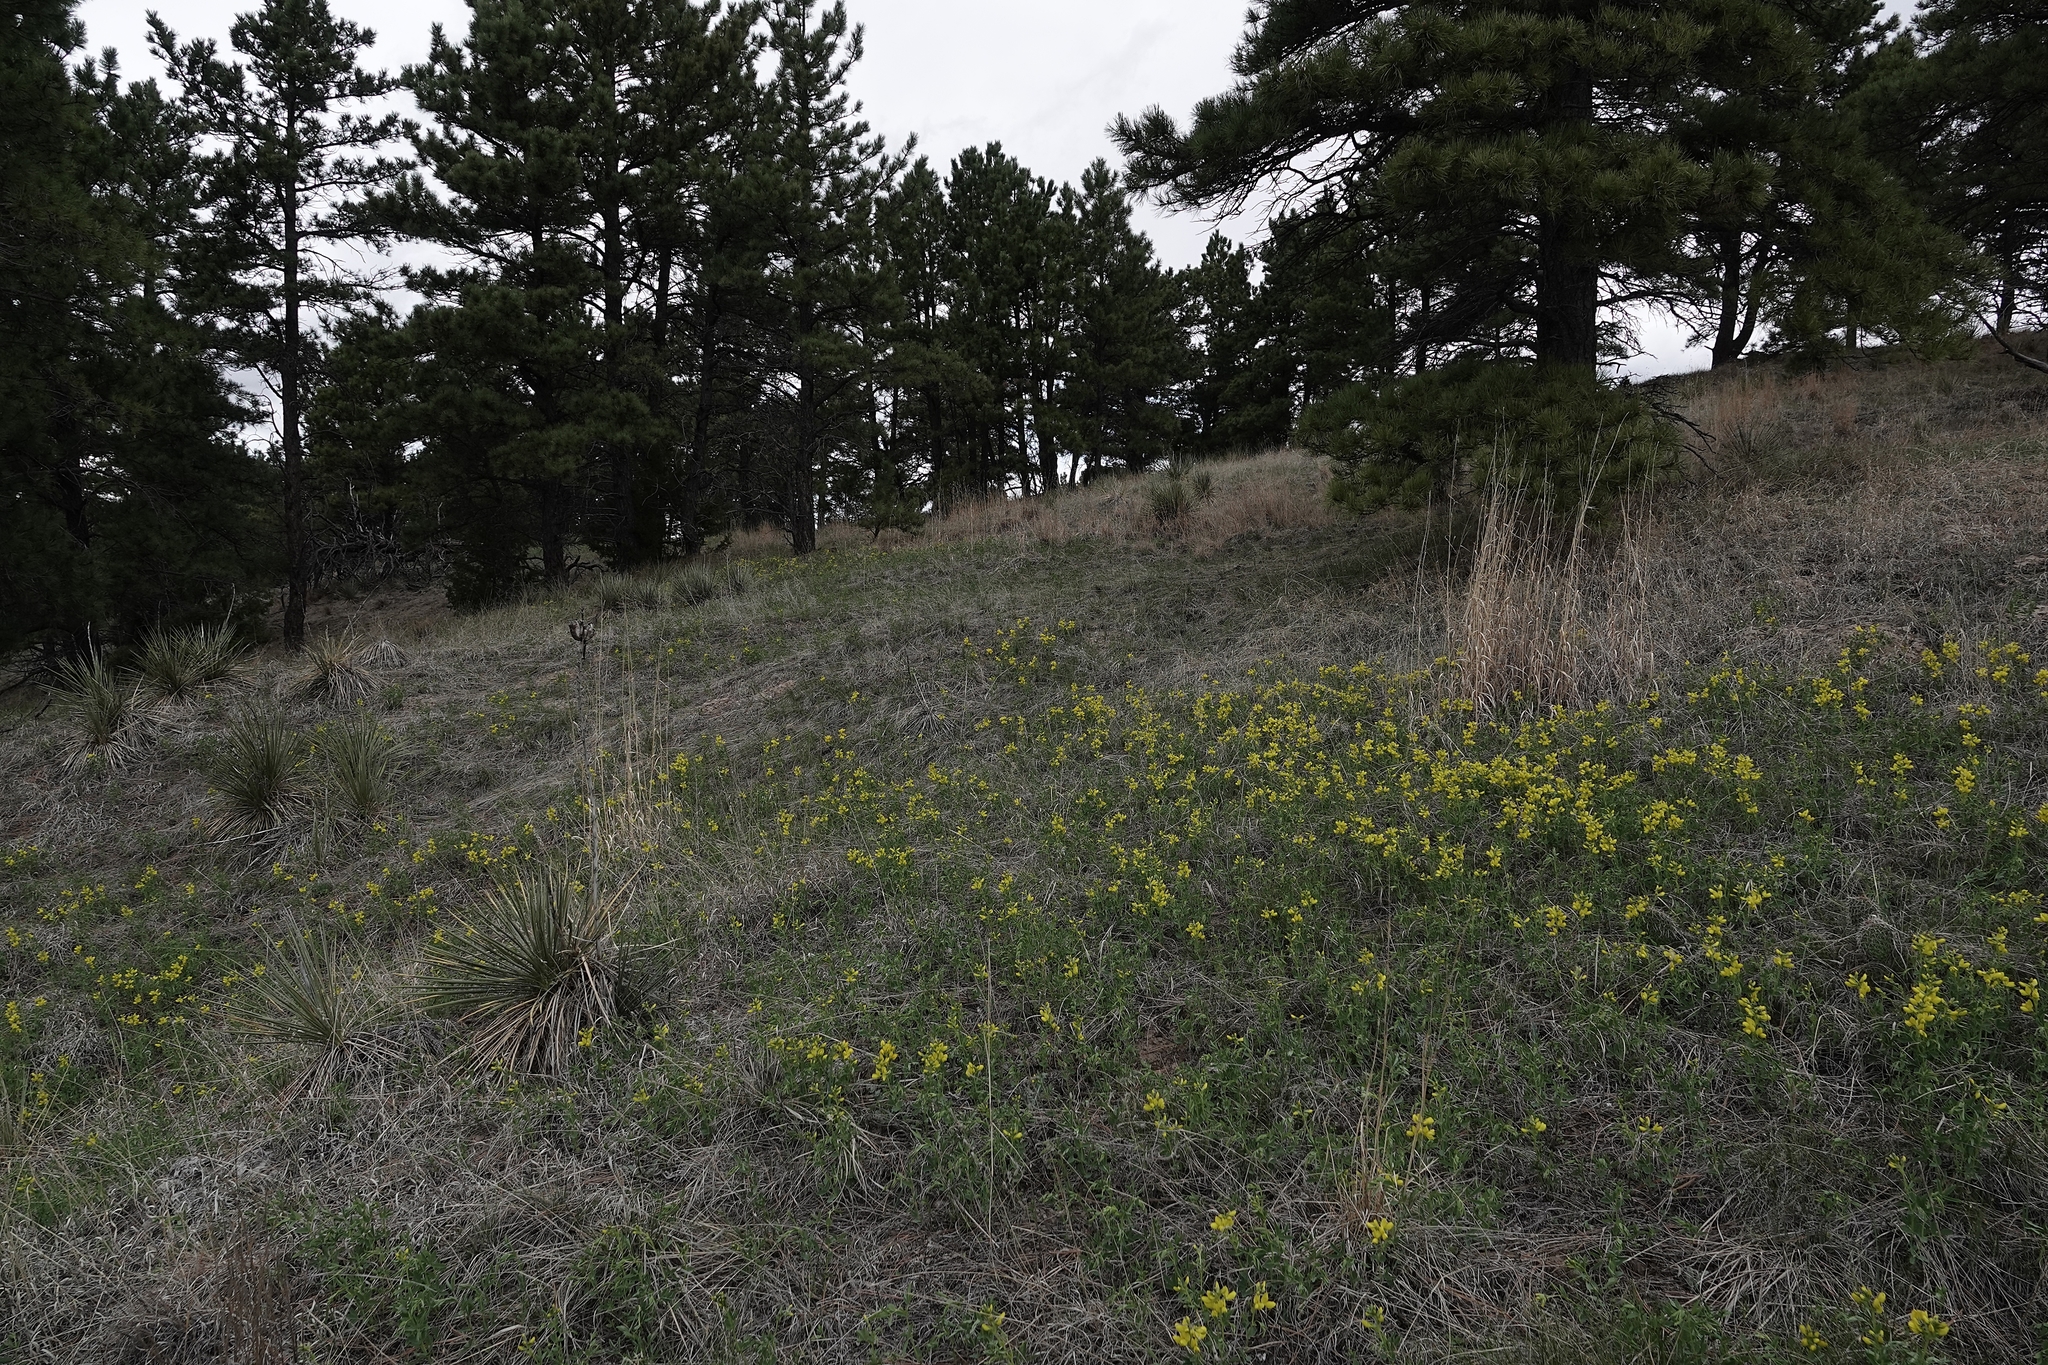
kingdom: Plantae
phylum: Tracheophyta
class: Magnoliopsida
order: Fabales
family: Fabaceae
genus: Thermopsis
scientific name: Thermopsis rhombifolia
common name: Circle-pod-pea
